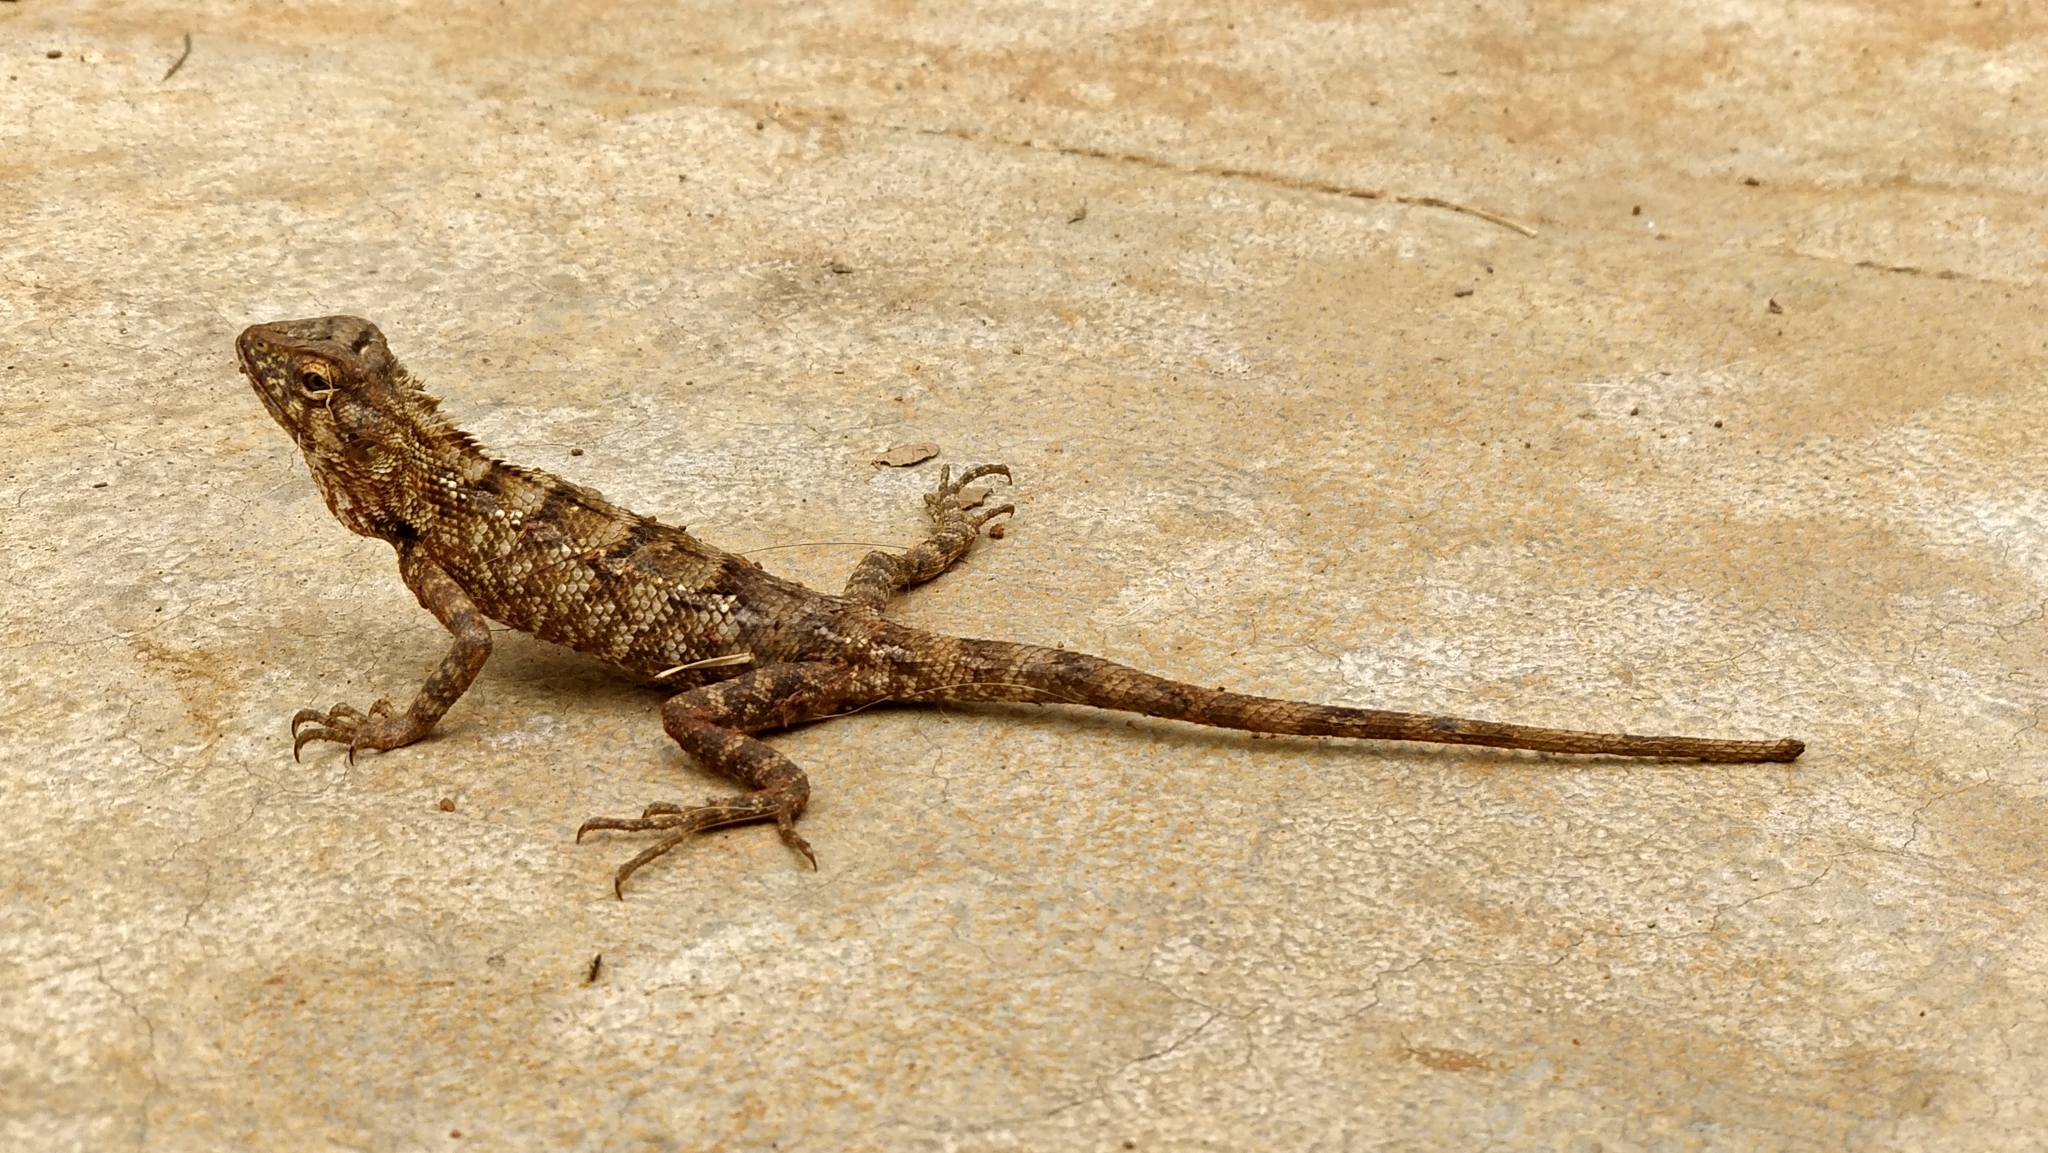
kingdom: Animalia
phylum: Chordata
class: Squamata
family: Agamidae
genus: Calotes
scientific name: Calotes versicolor
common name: Oriental garden lizard
